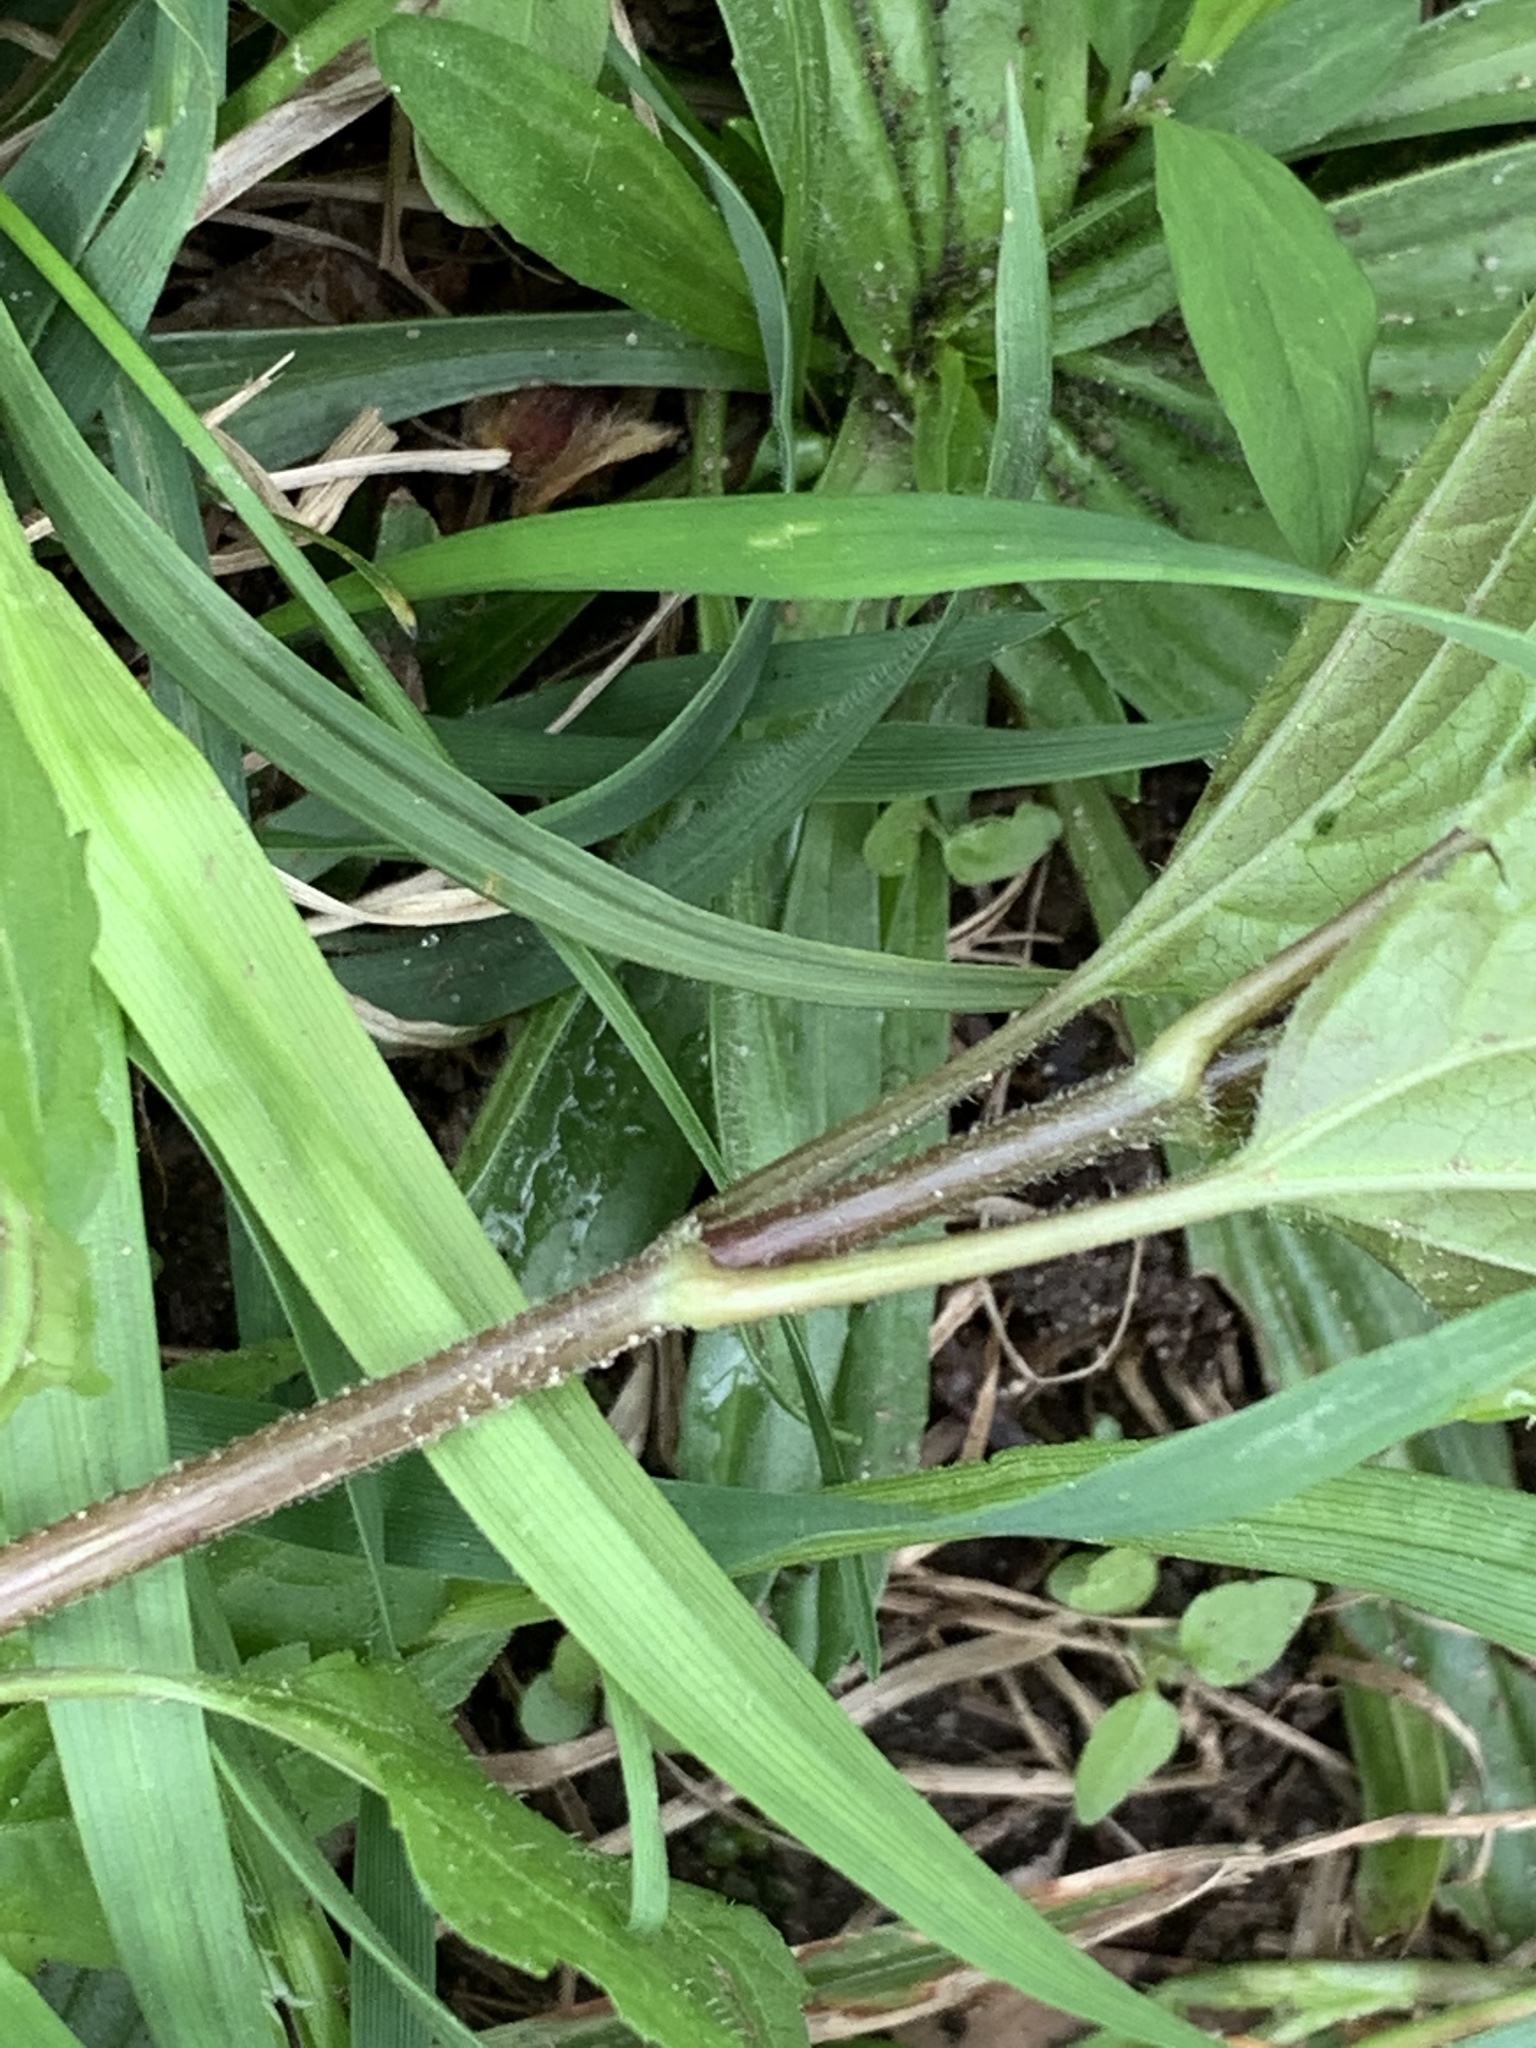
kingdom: Plantae
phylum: Tracheophyta
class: Magnoliopsida
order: Asterales
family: Asteraceae
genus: Ageratina
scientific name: Ageratina altissima
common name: White snakeroot
